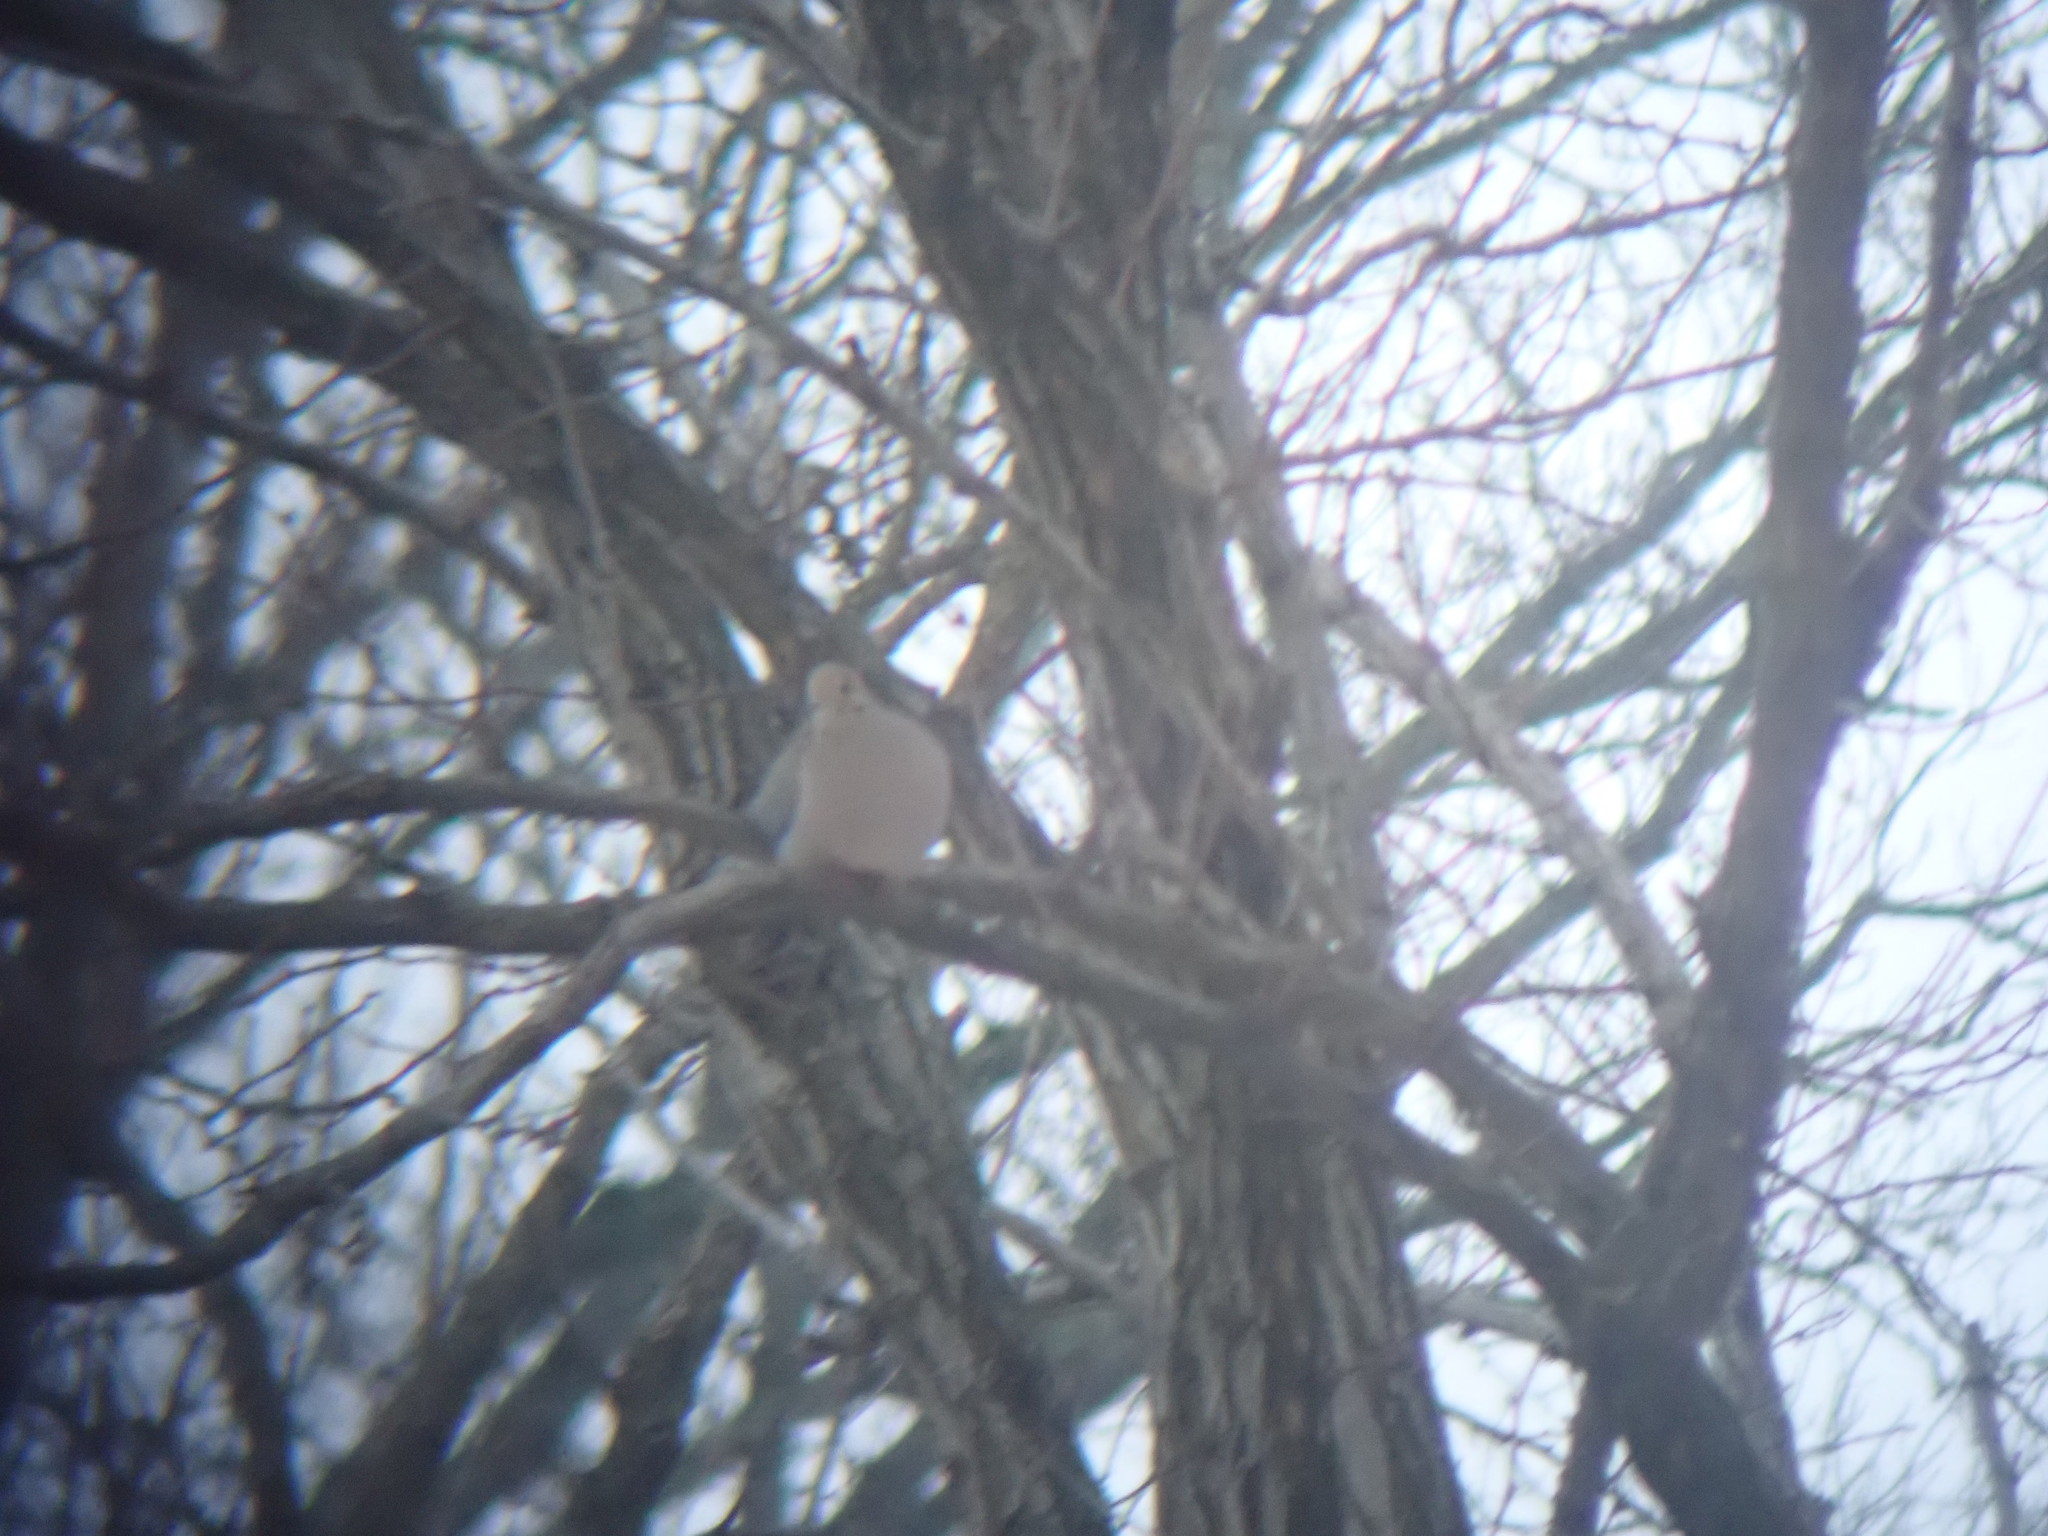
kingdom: Animalia
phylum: Chordata
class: Aves
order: Columbiformes
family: Columbidae
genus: Zenaida
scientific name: Zenaida macroura
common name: Mourning dove
